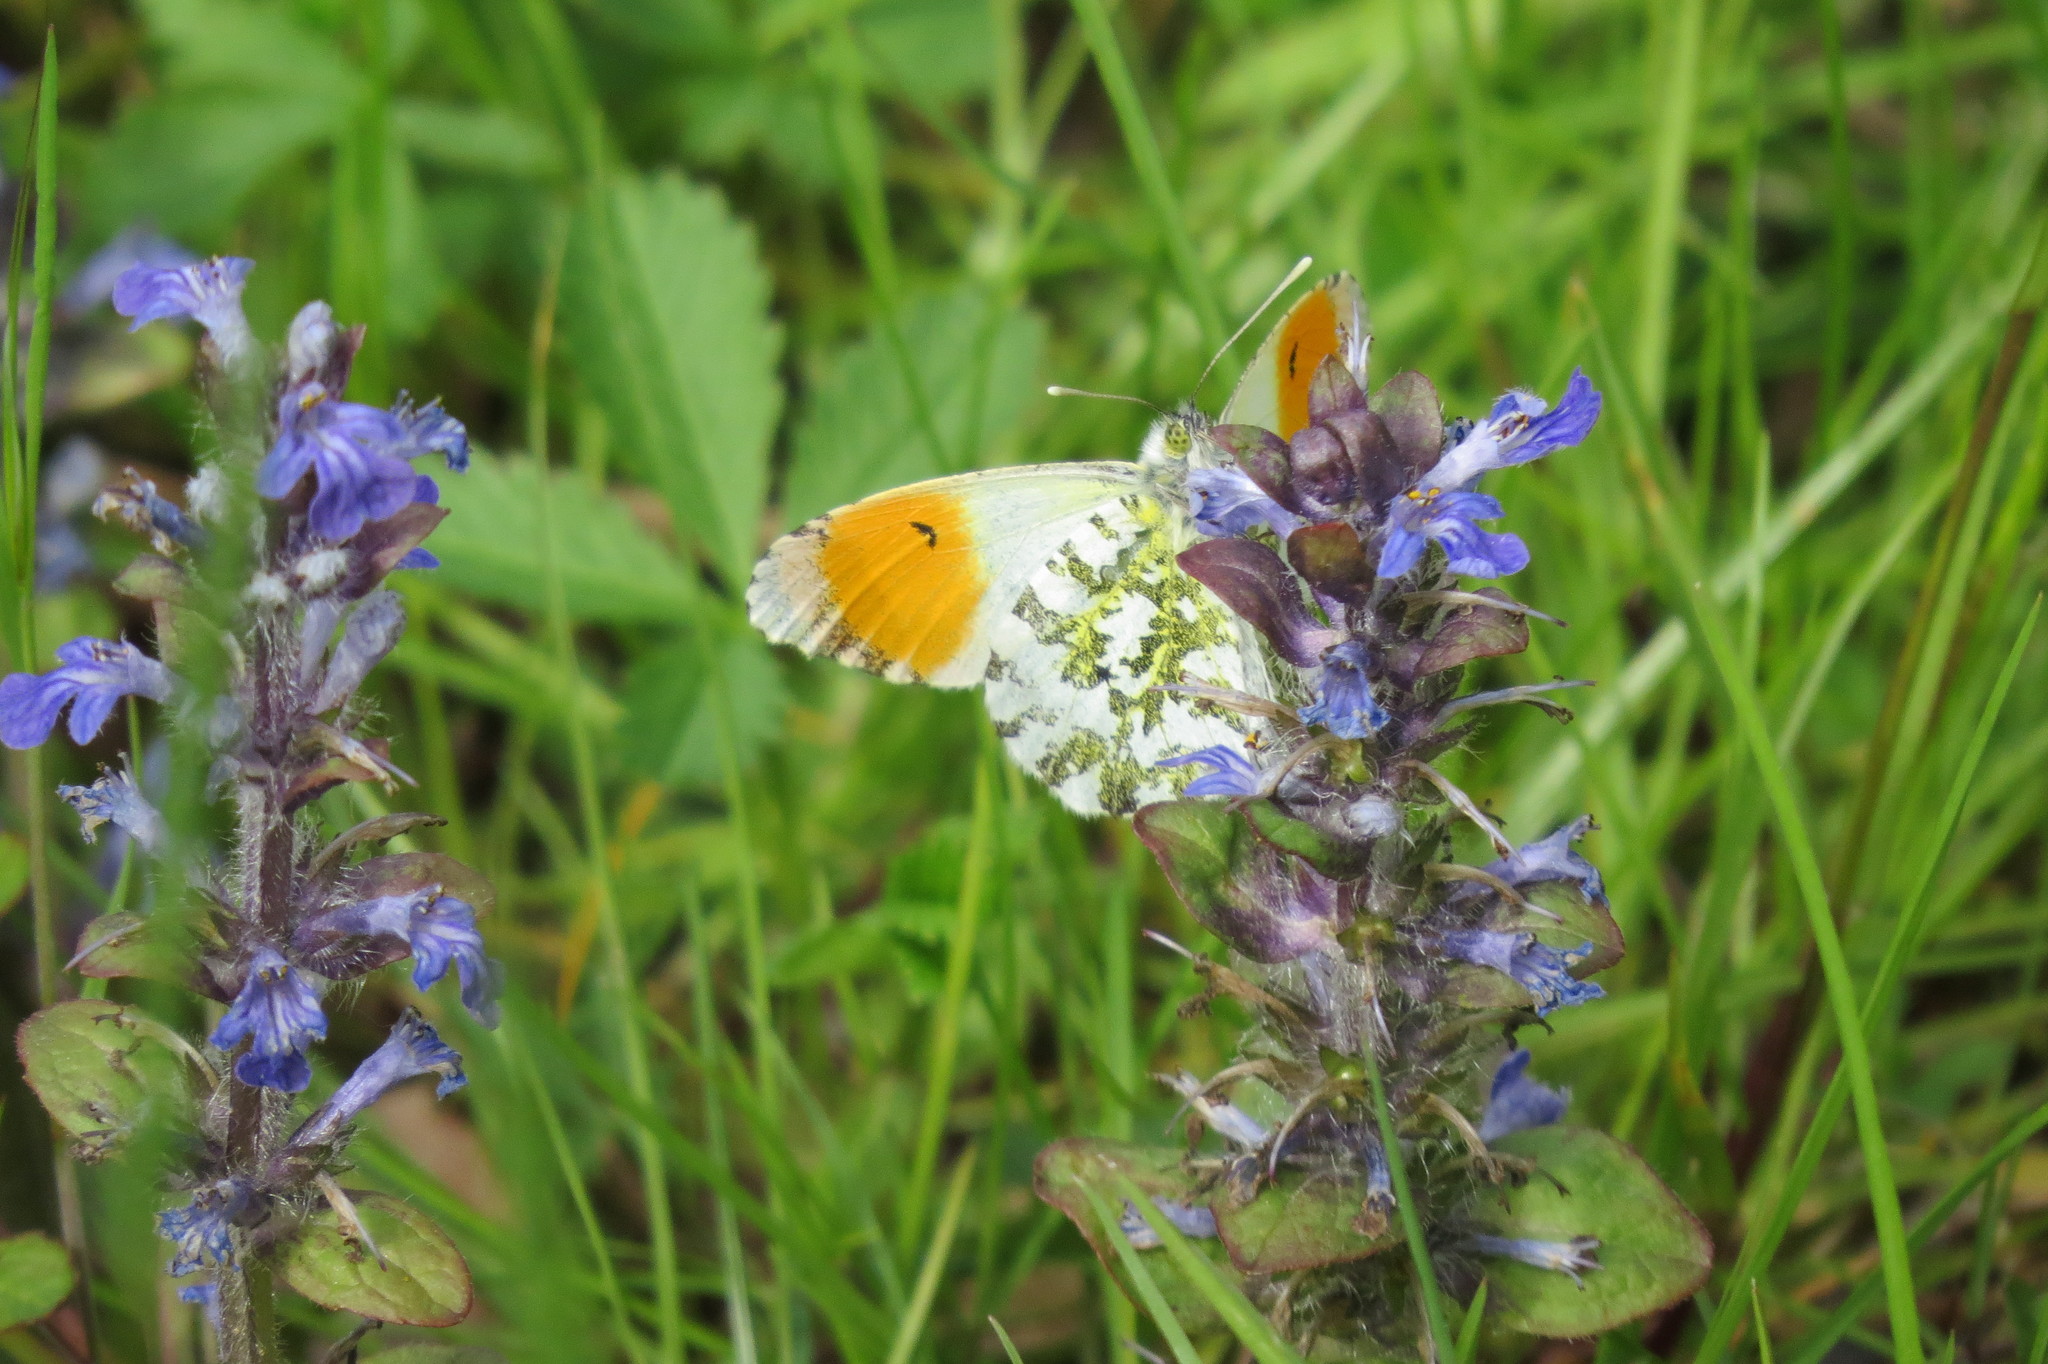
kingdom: Animalia
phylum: Arthropoda
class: Insecta
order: Lepidoptera
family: Pieridae
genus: Anthocharis
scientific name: Anthocharis cardamines
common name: Orange-tip
